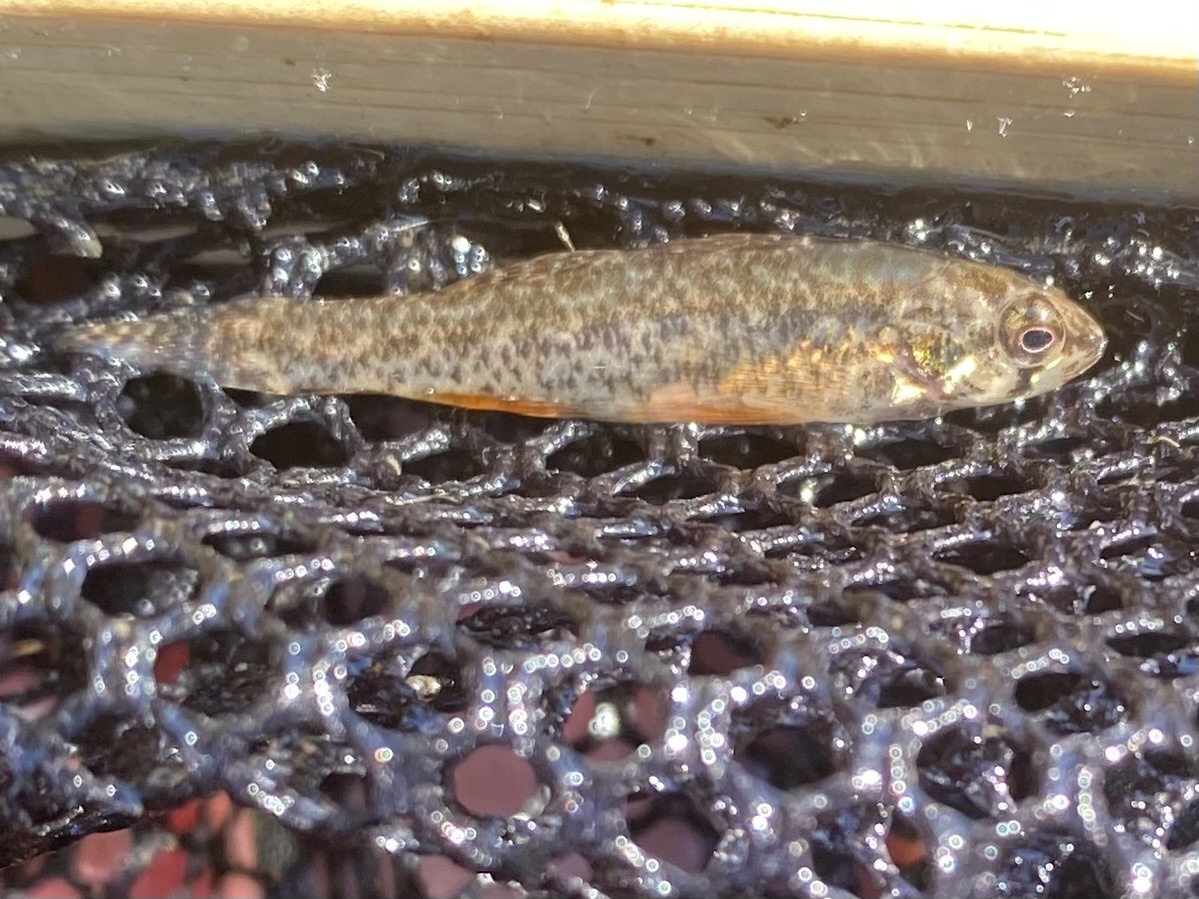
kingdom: Animalia
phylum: Chordata
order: Perciformes
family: Percidae
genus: Etheostoma
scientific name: Etheostoma microperca
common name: Least darter
